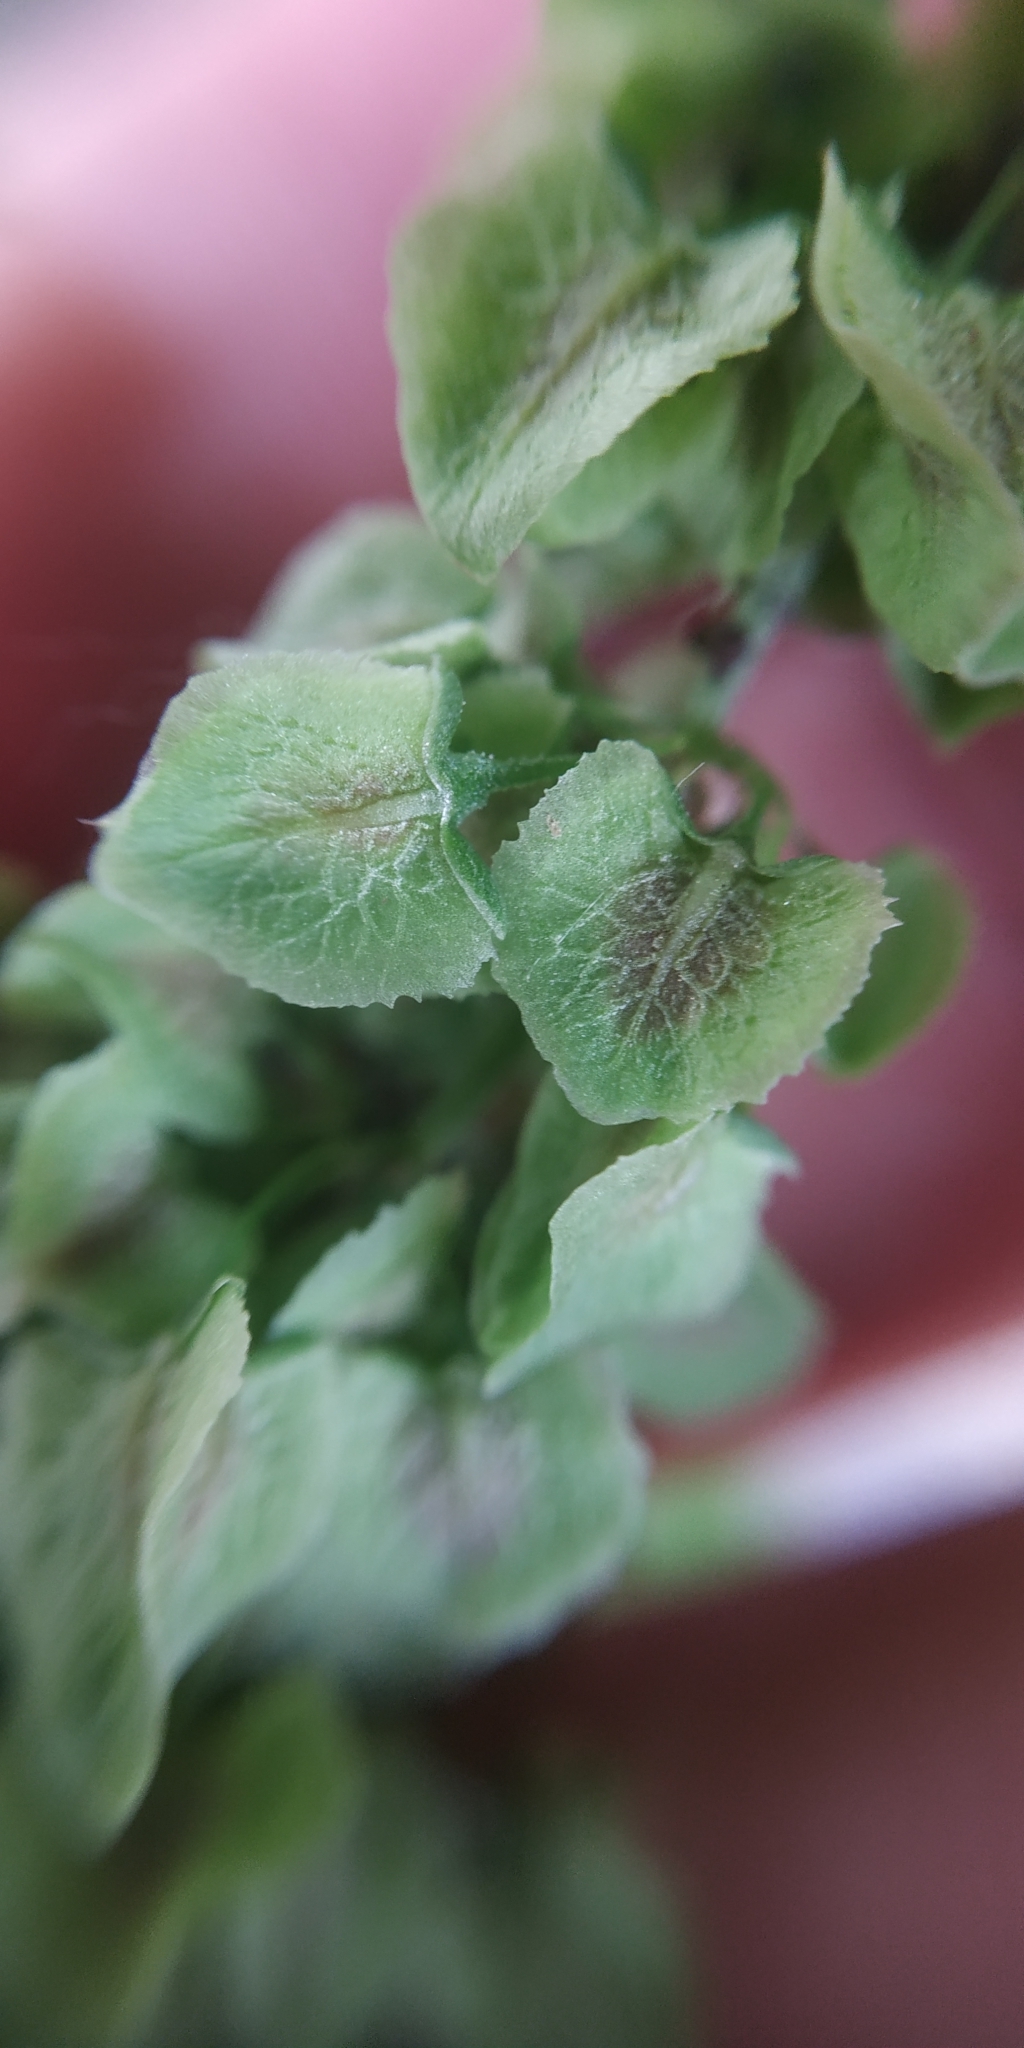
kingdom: Plantae
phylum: Tracheophyta
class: Magnoliopsida
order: Caryophyllales
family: Polygonaceae
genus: Rumex
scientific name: Rumex longifolius
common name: Dooryard dock
